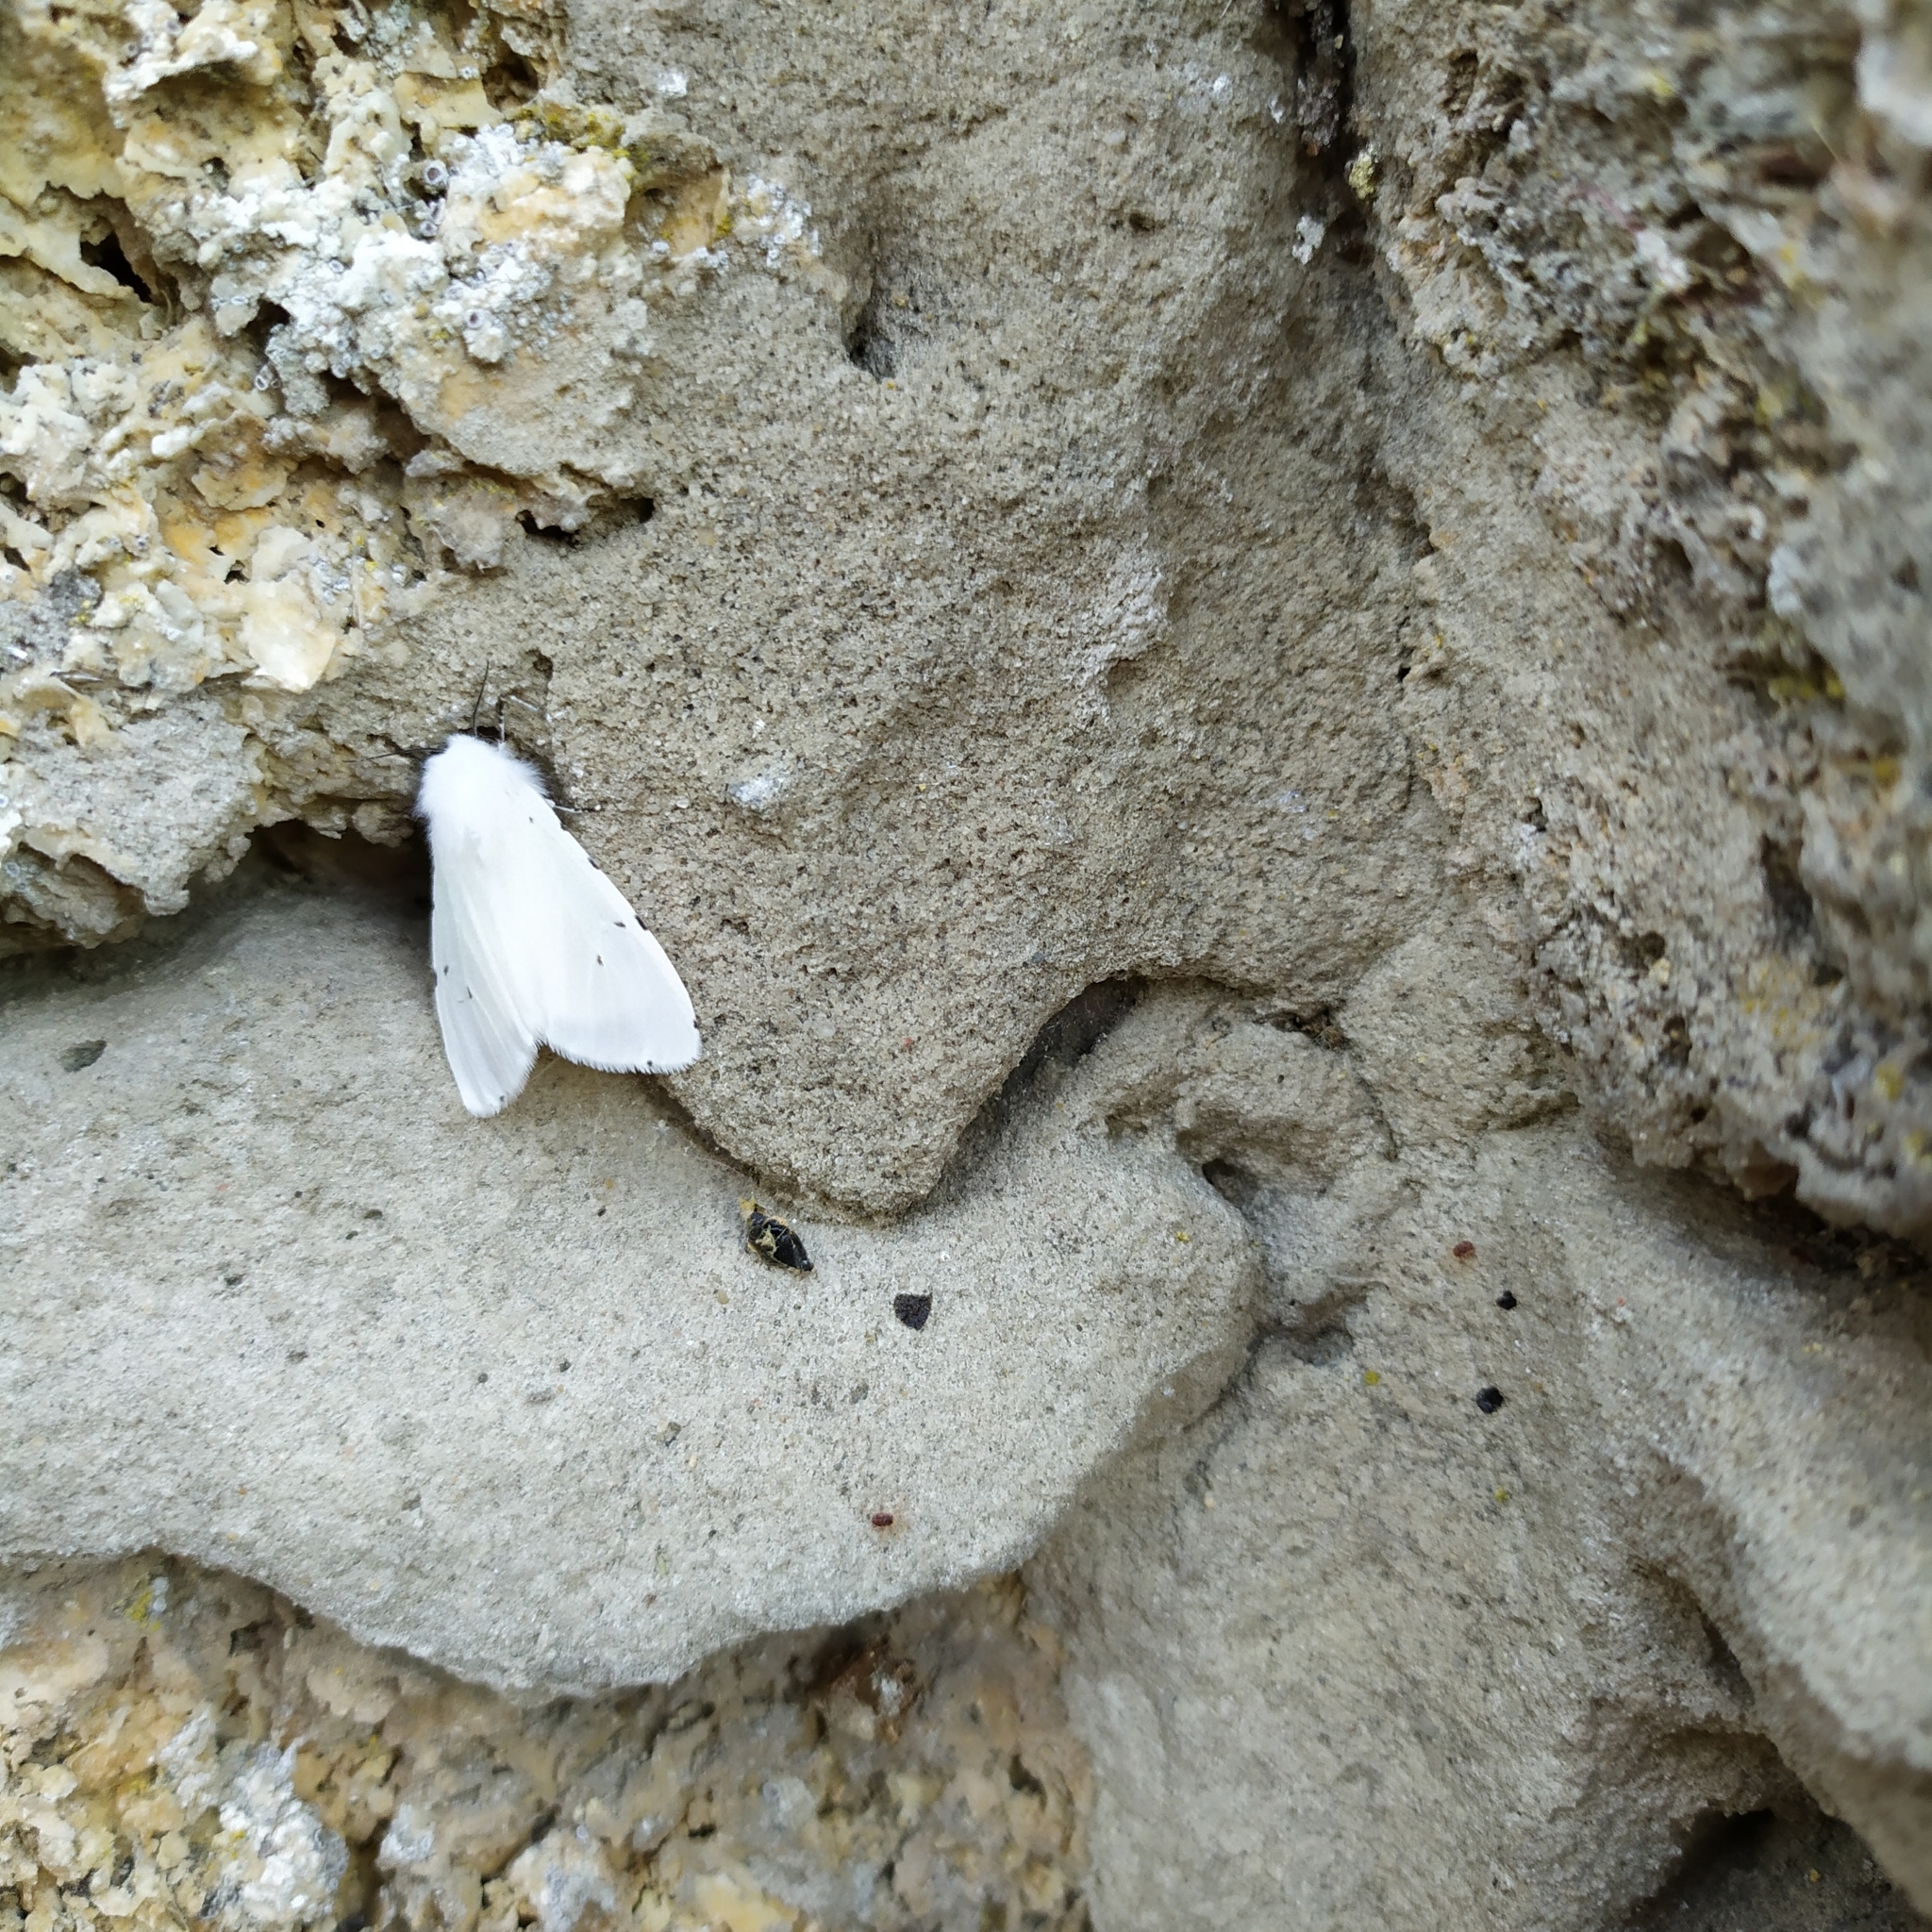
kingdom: Animalia
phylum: Arthropoda
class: Insecta
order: Lepidoptera
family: Erebidae
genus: Hyphantria
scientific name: Hyphantria cunea
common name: American white moth
